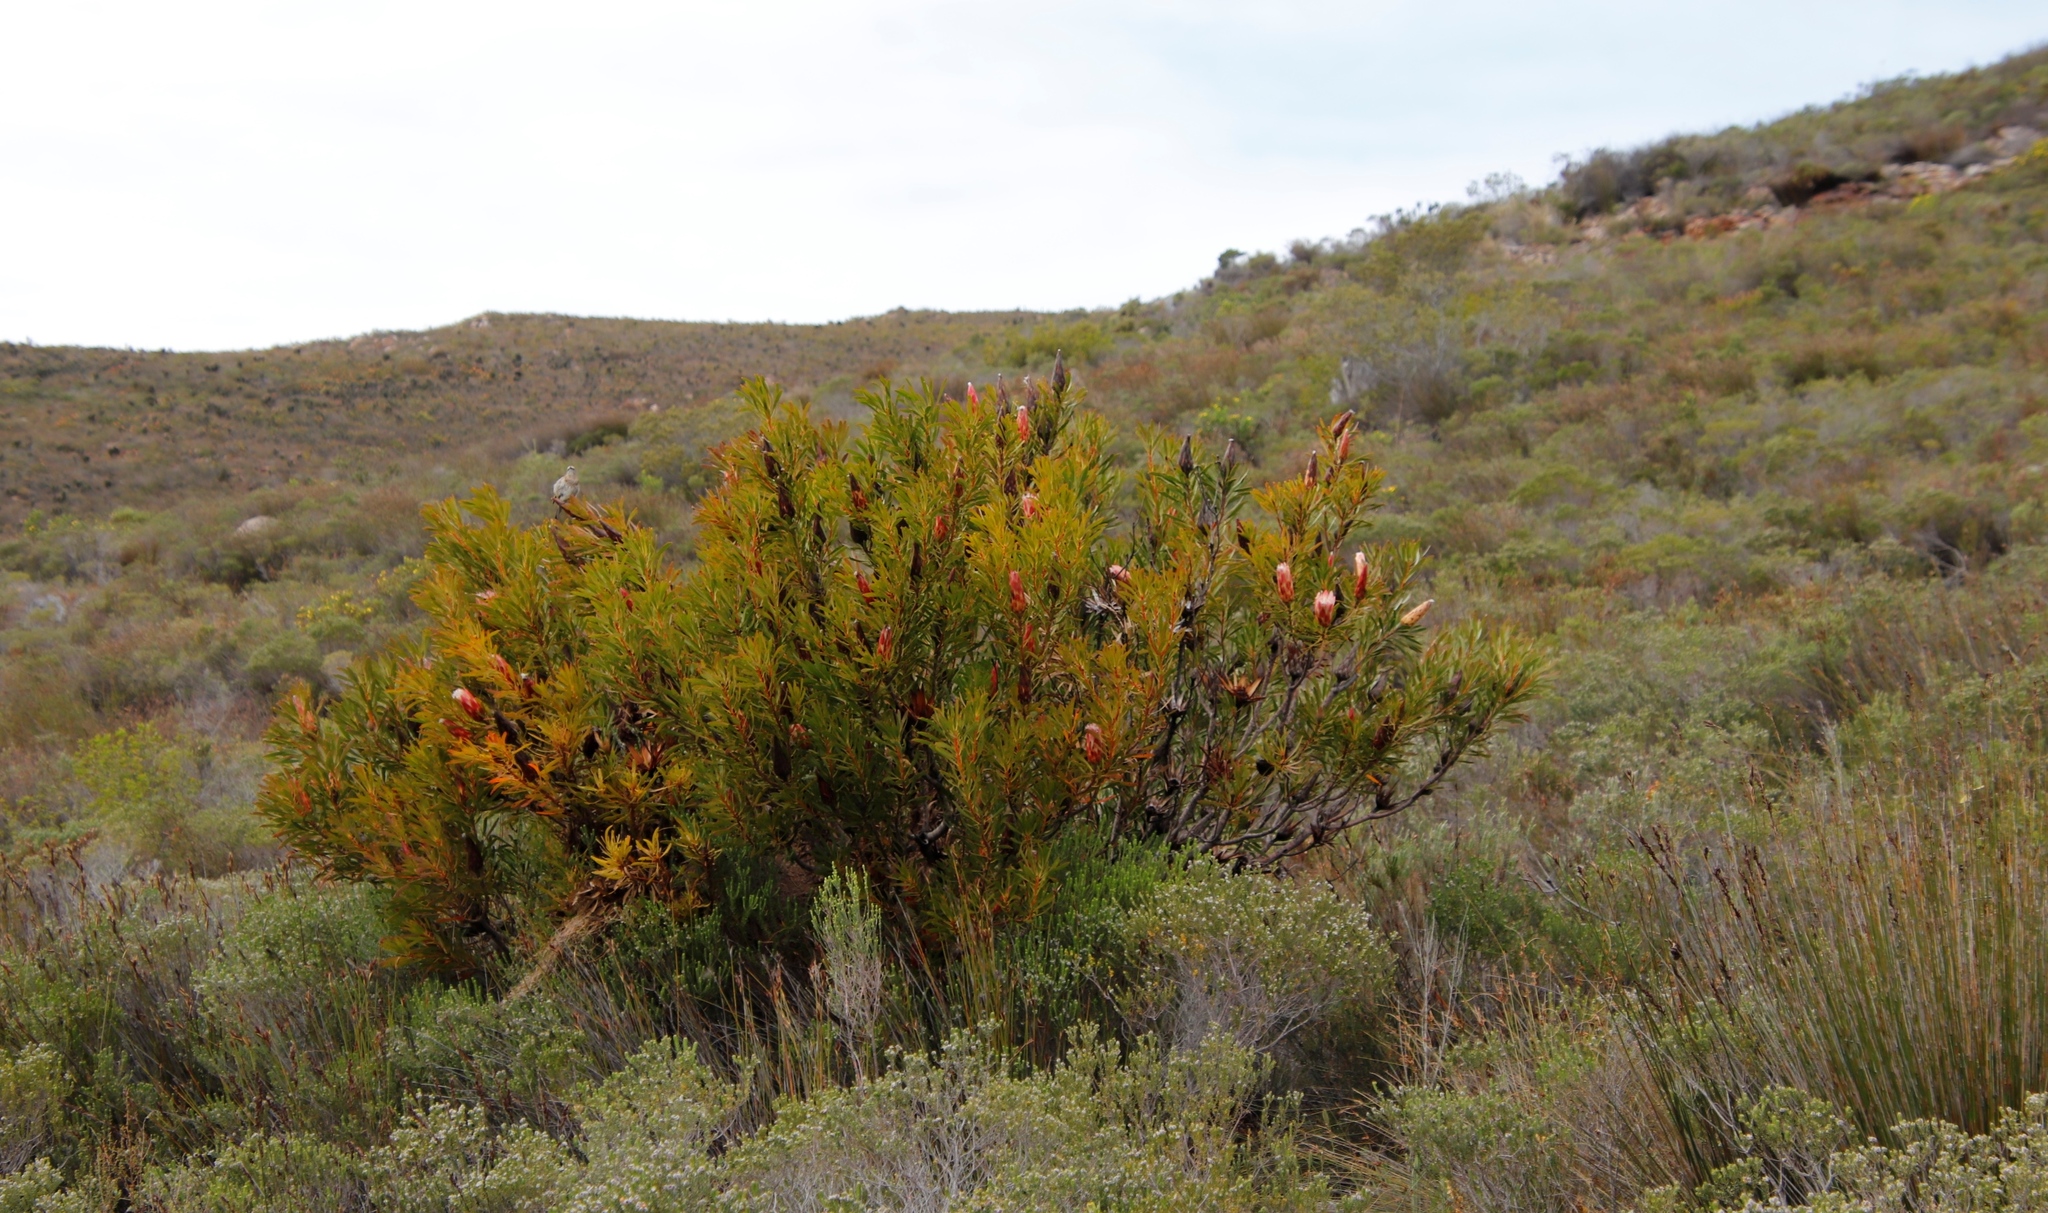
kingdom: Plantae
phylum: Tracheophyta
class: Magnoliopsida
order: Proteales
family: Proteaceae
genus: Protea
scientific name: Protea repens
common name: Sugarbush
